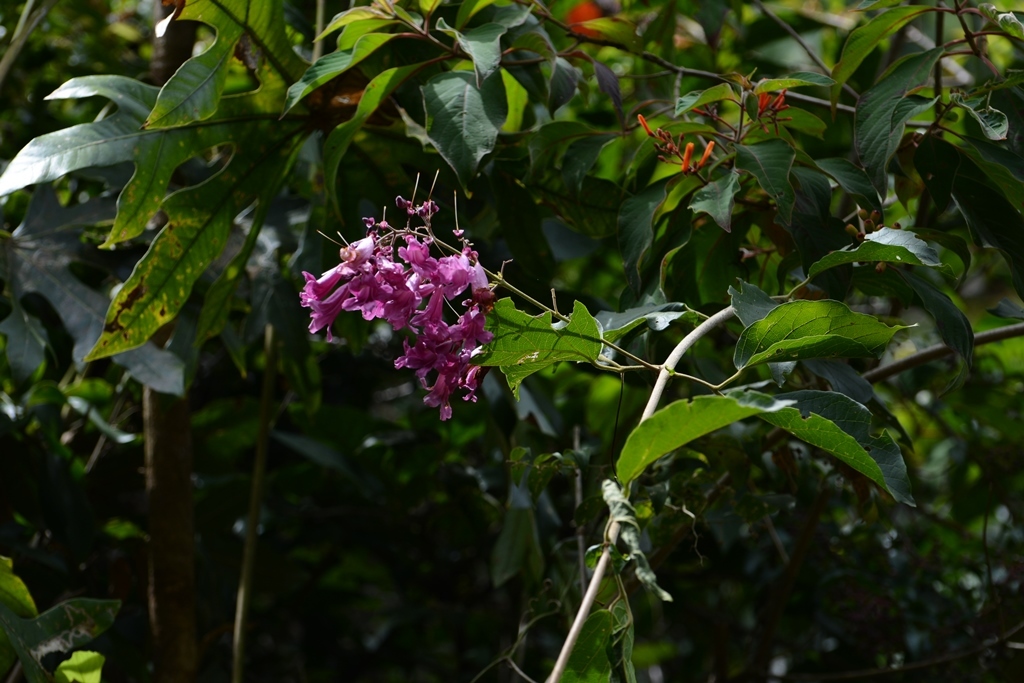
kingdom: Plantae
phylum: Tracheophyta
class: Magnoliopsida
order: Lamiales
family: Bignoniaceae
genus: Fridericia
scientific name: Fridericia chica
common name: Cricketvine
